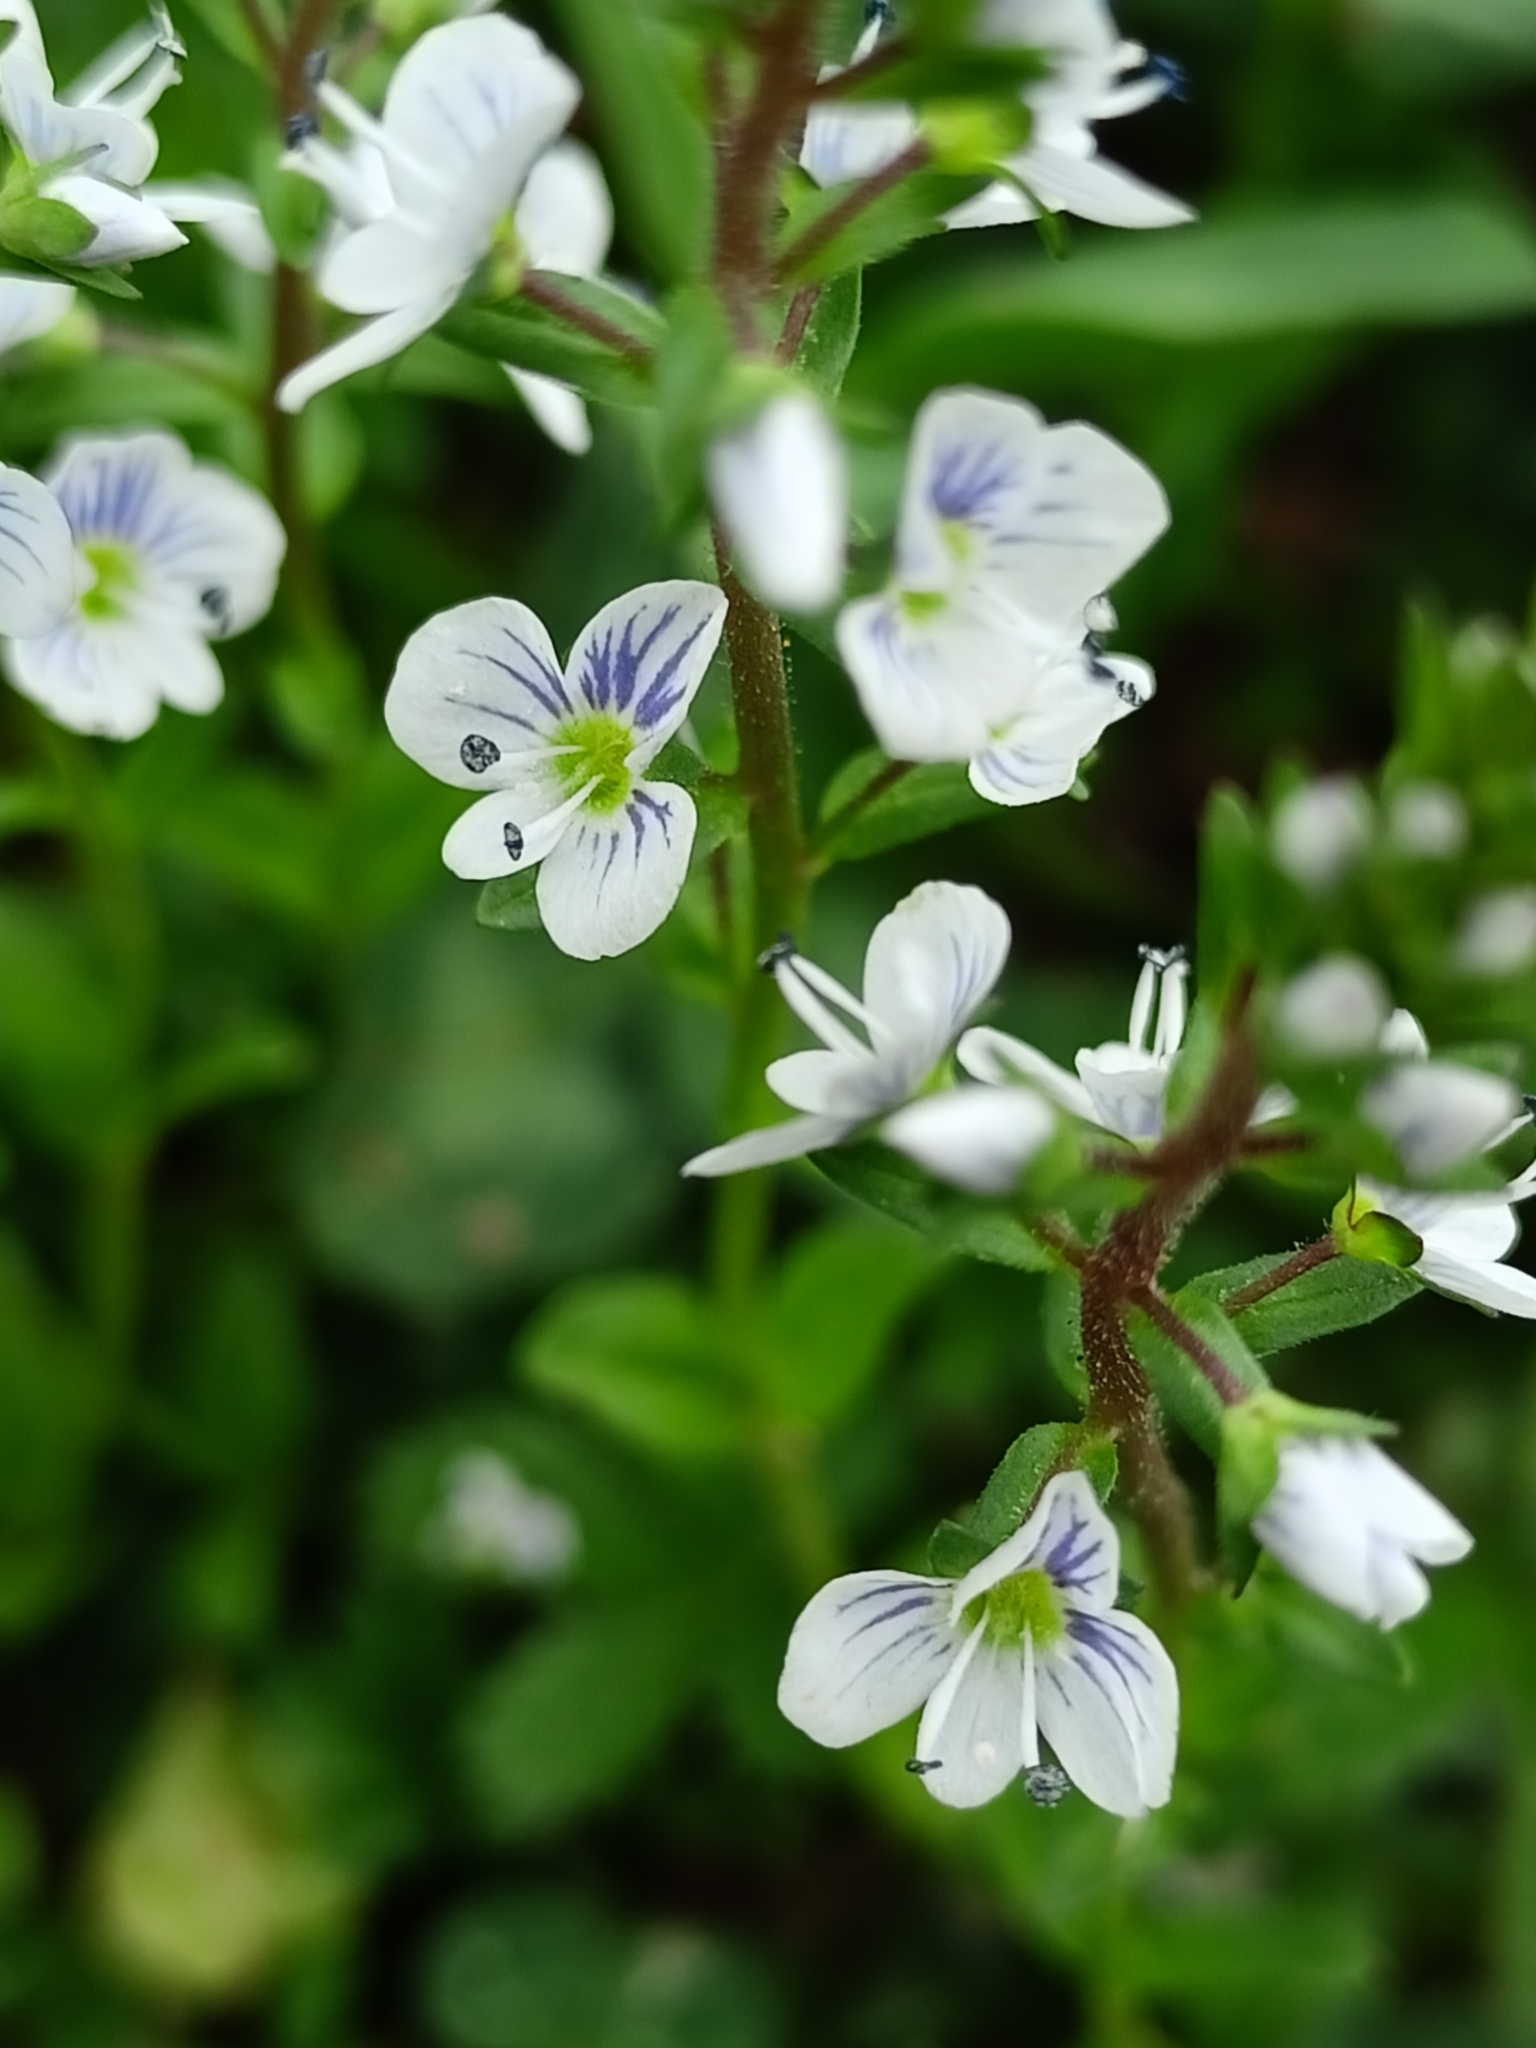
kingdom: Plantae
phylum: Tracheophyta
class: Magnoliopsida
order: Lamiales
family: Plantaginaceae
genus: Veronica
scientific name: Veronica serpyllifolia
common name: Thyme-leaved speedwell
